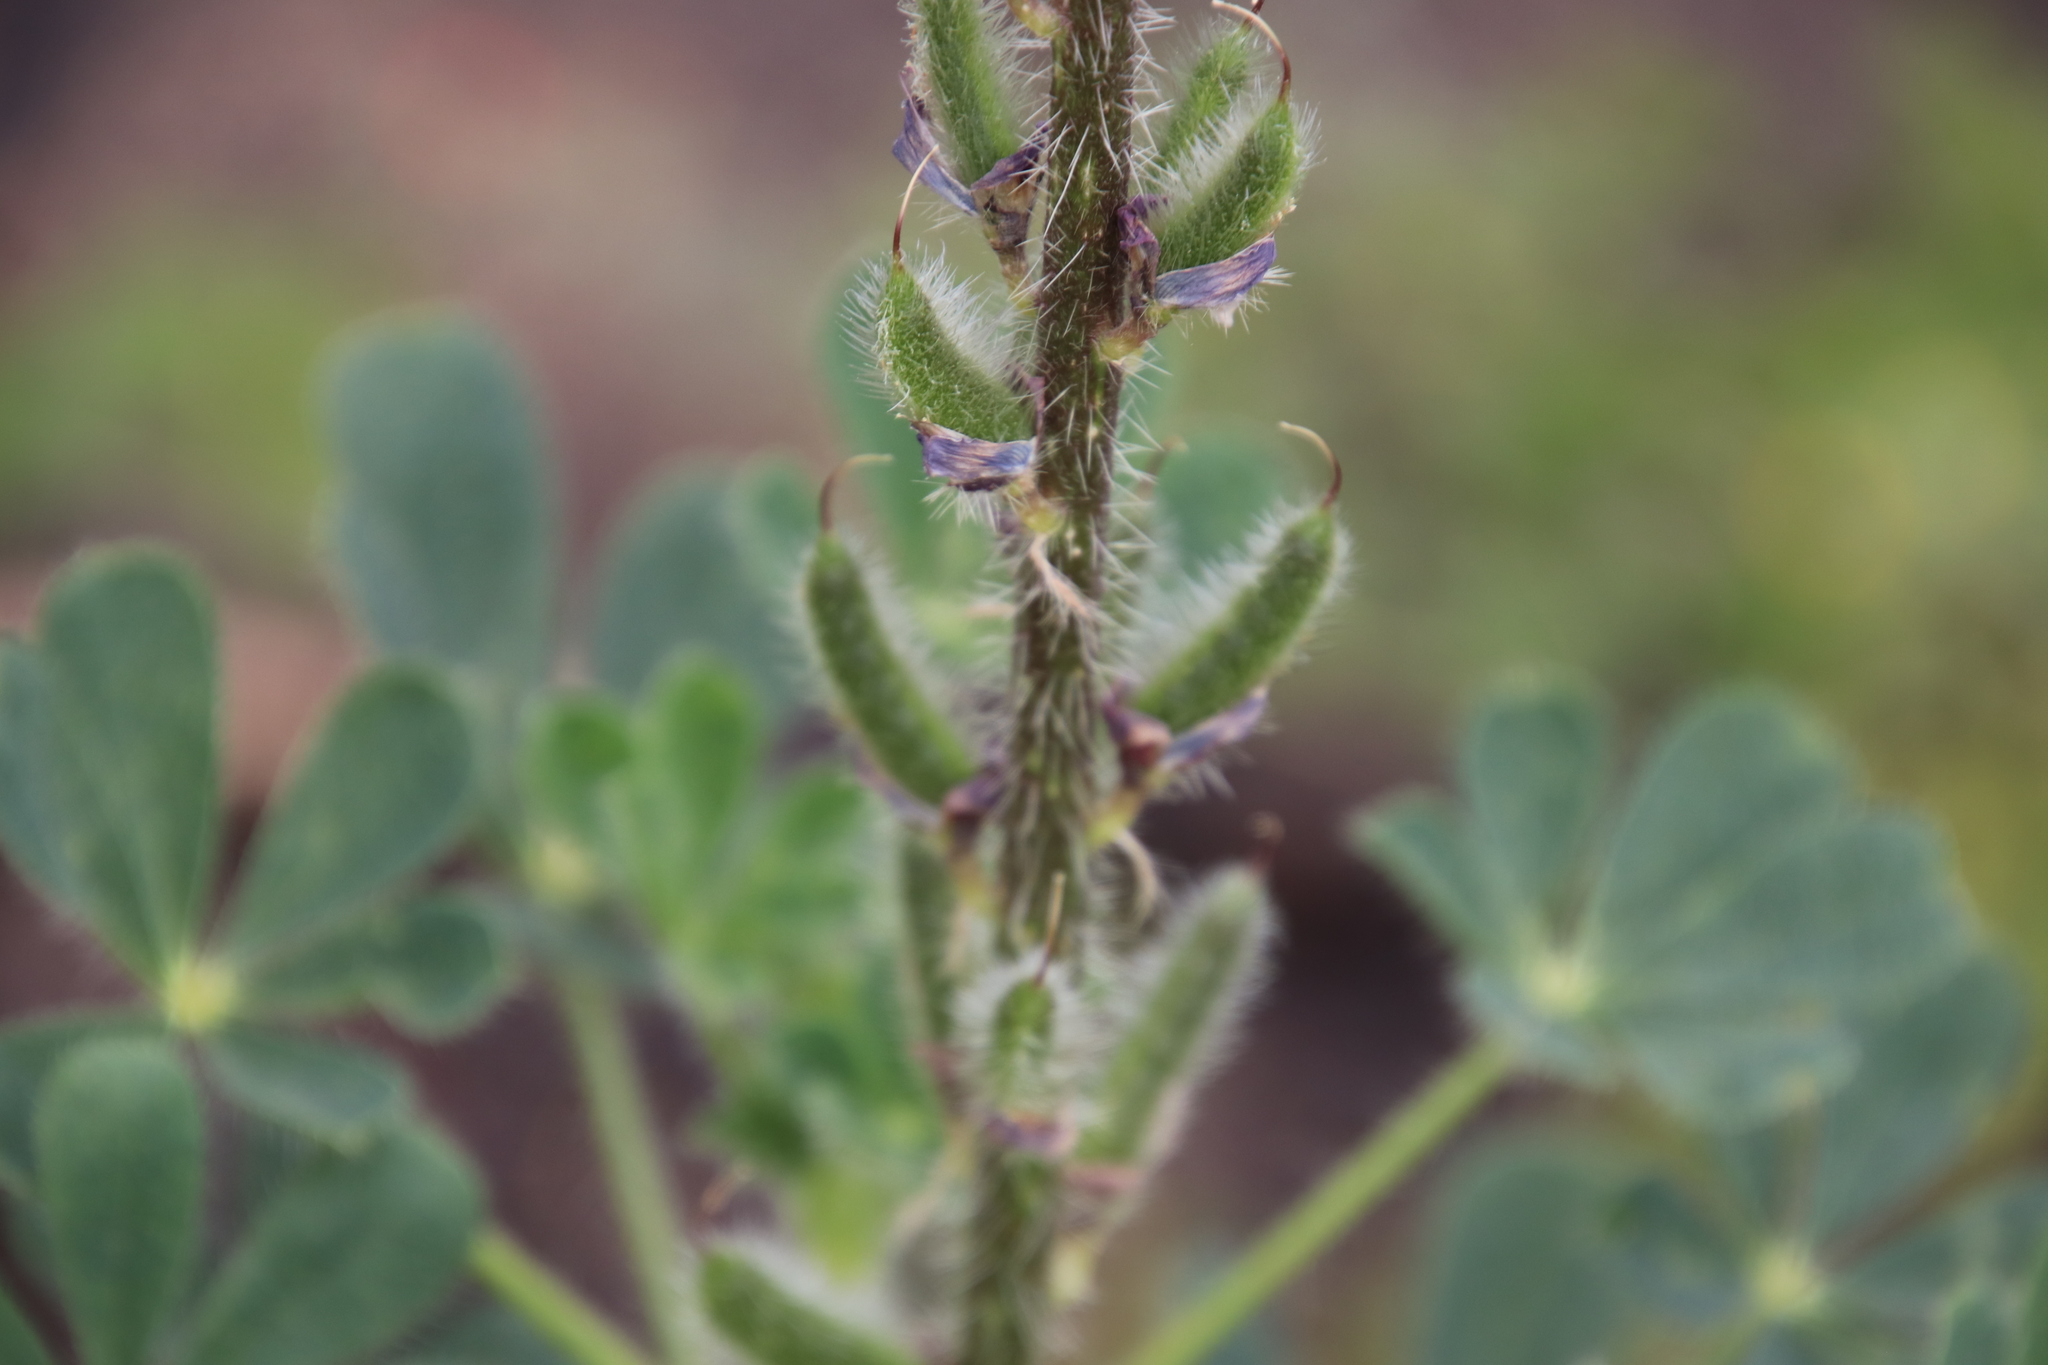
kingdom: Plantae
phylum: Tracheophyta
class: Magnoliopsida
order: Fabales
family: Fabaceae
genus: Lupinus
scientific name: Lupinus hirsutissimus
